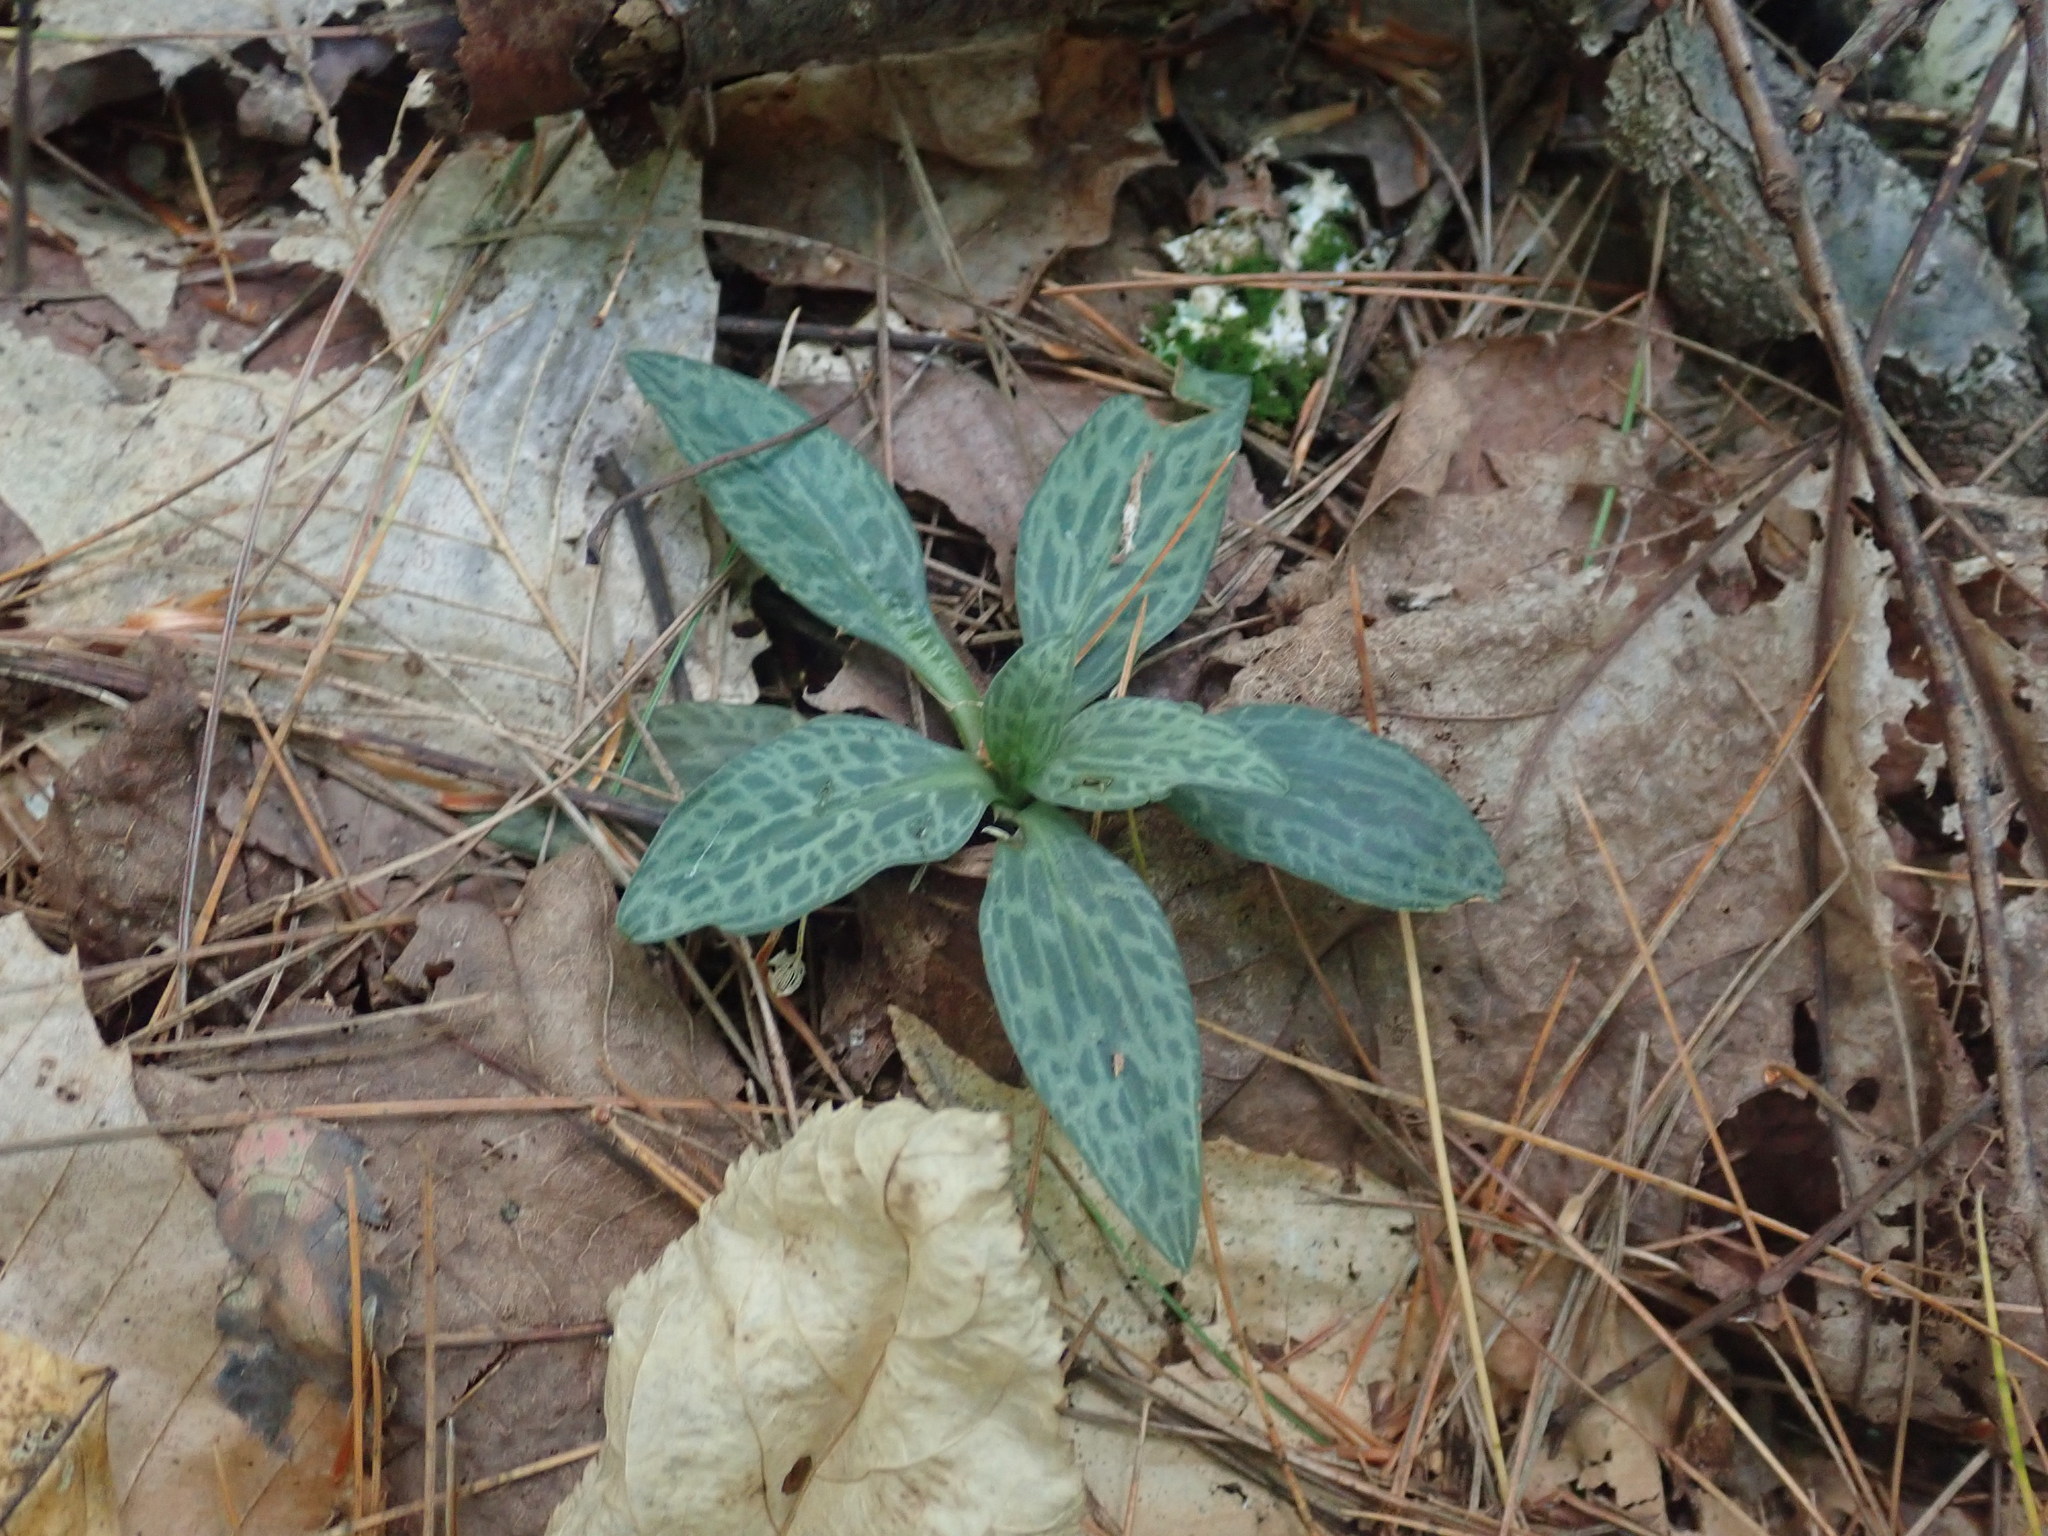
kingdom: Plantae
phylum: Tracheophyta
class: Liliopsida
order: Asparagales
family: Orchidaceae
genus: Goodyera
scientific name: Goodyera tesselata
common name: Checkered rattlesnake-plantain
